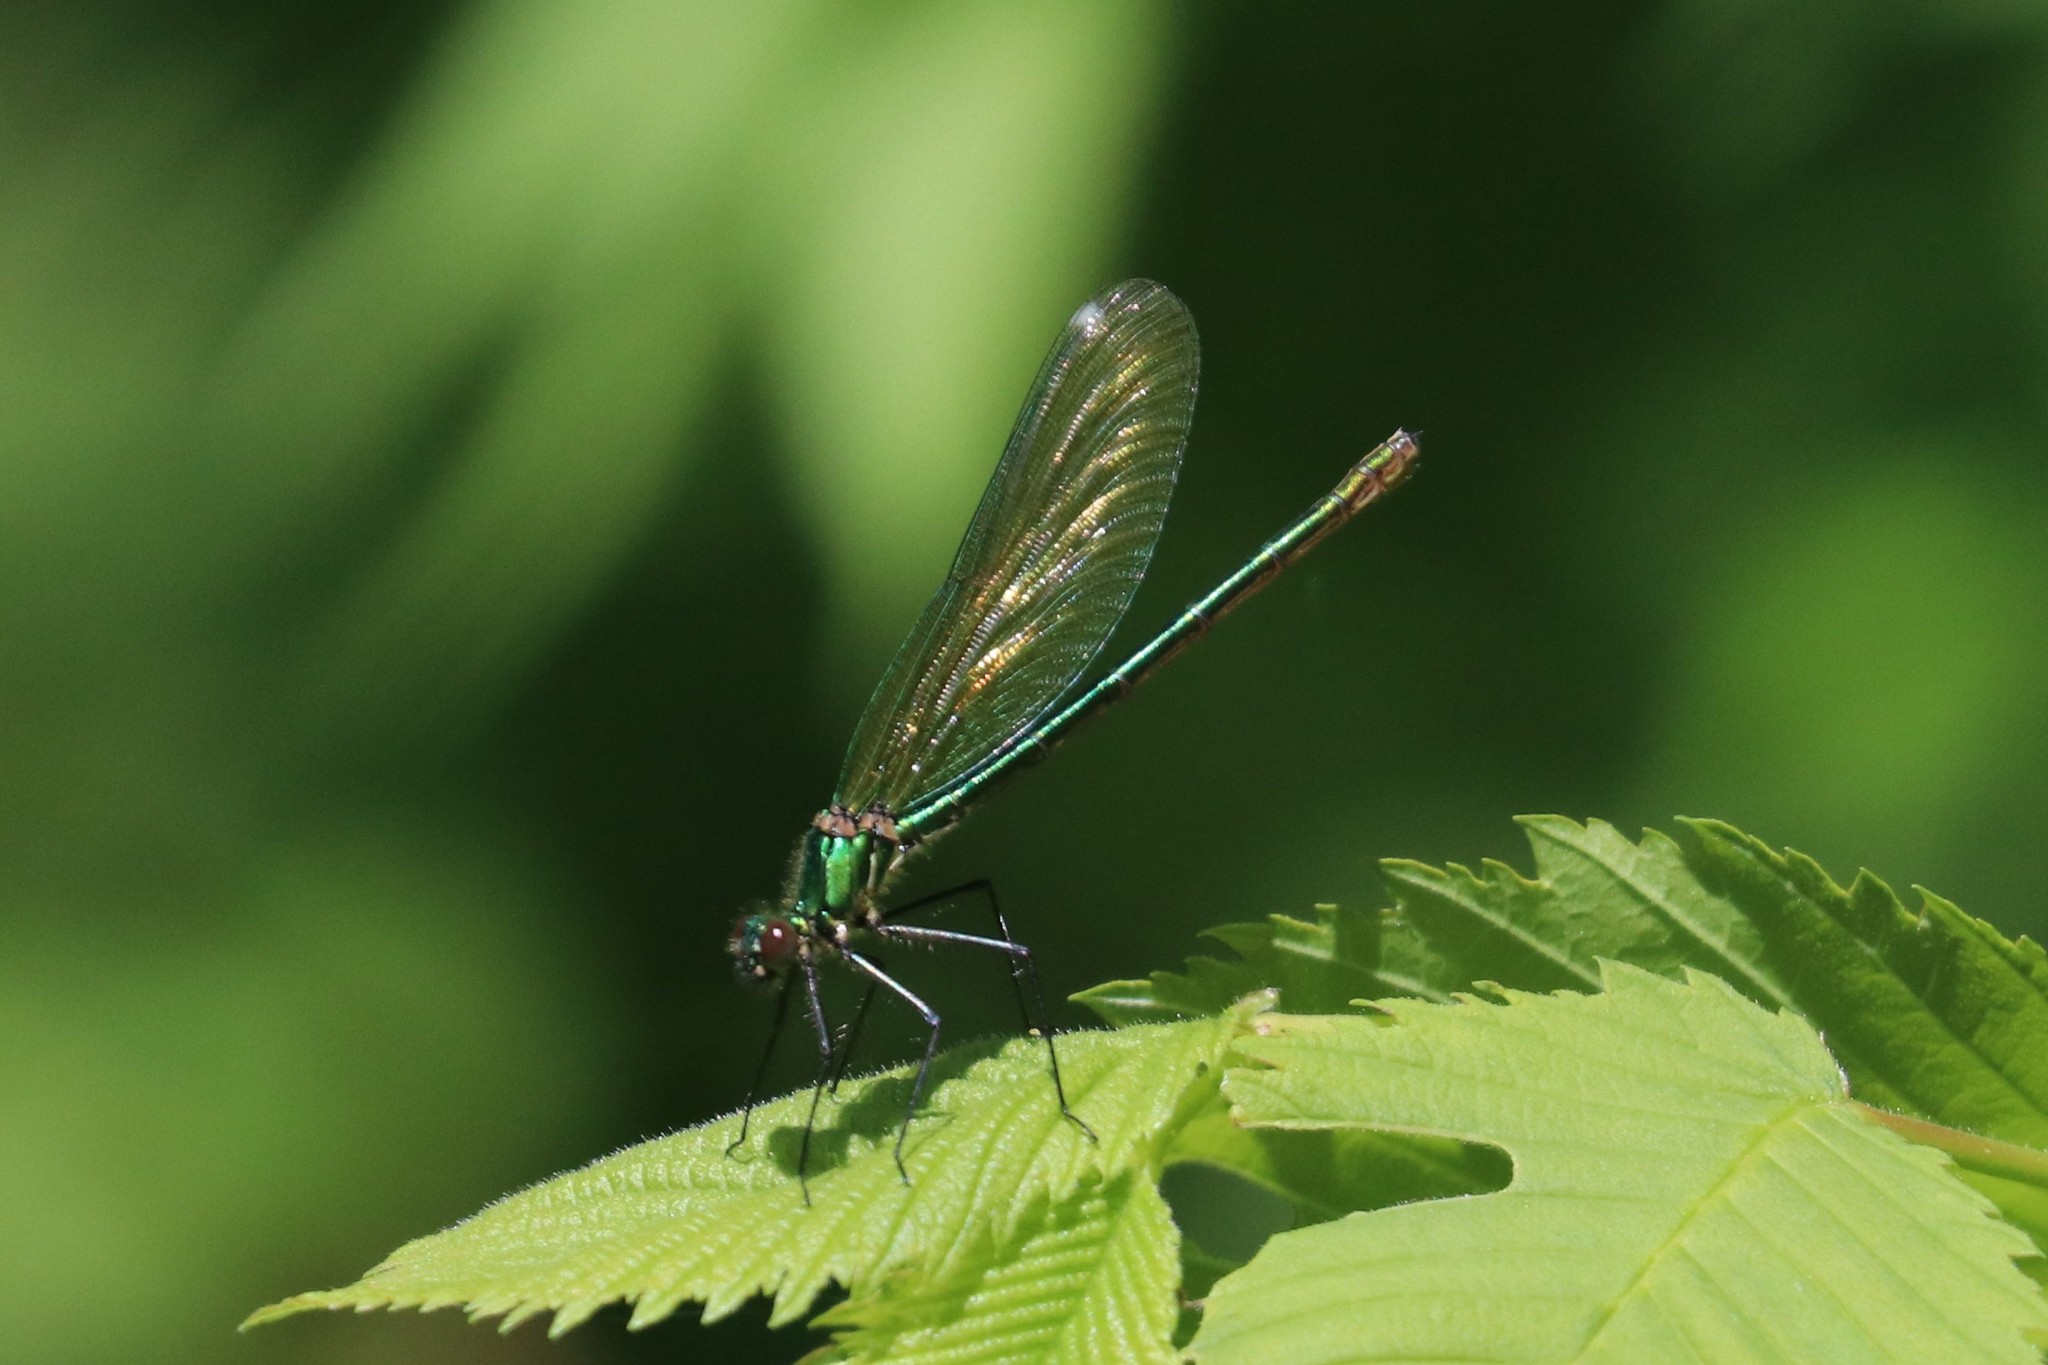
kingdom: Animalia
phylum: Arthropoda
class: Insecta
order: Odonata
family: Calopterygidae
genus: Calopteryx
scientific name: Calopteryx splendens
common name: Banded demoiselle
